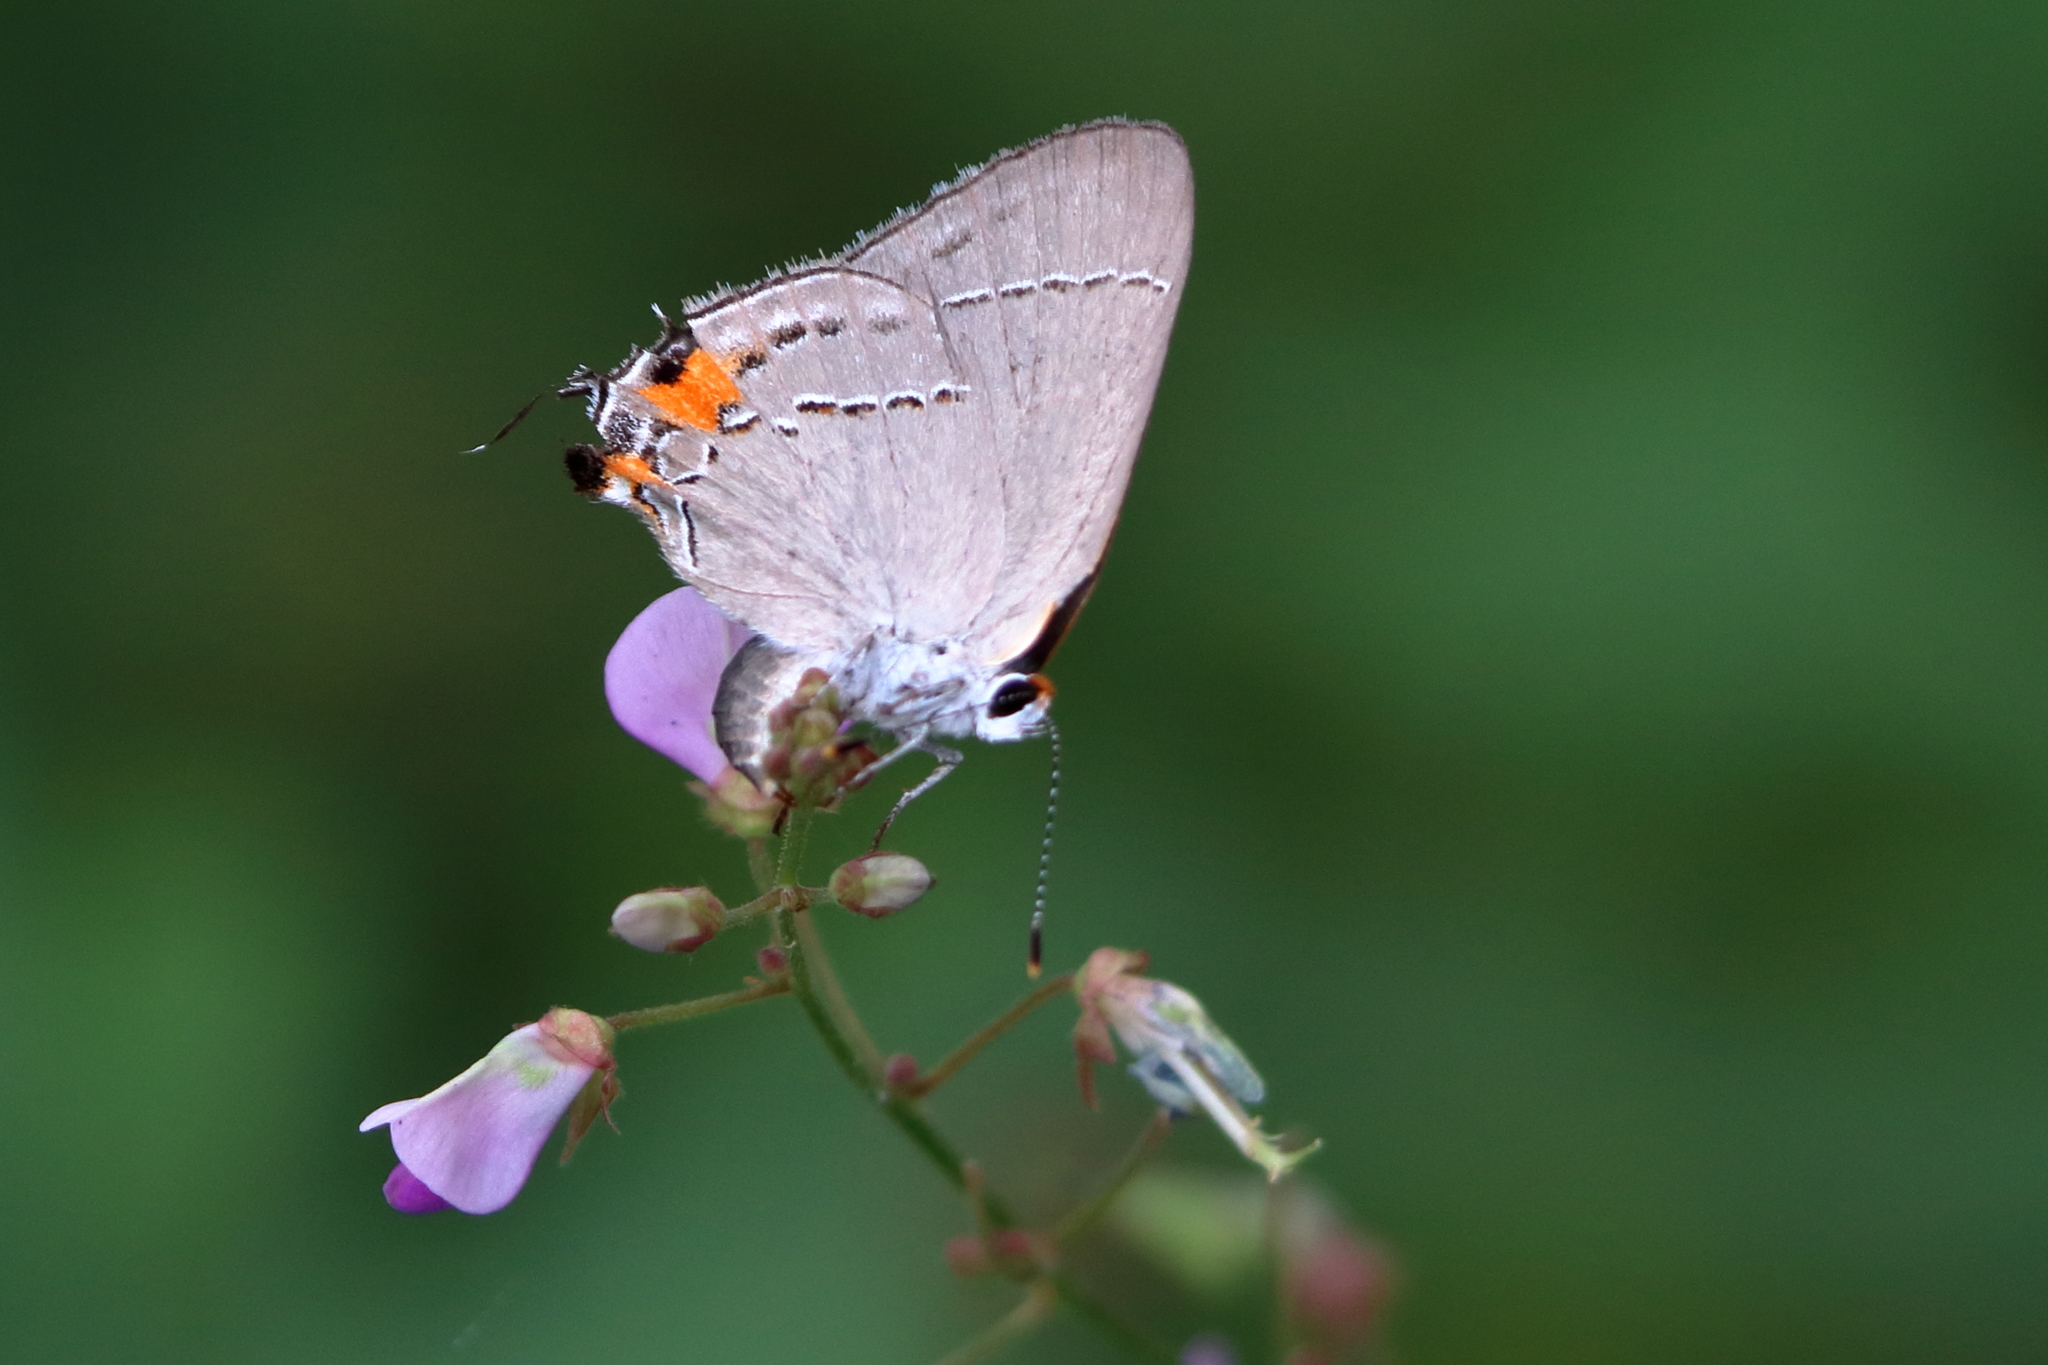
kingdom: Animalia
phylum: Arthropoda
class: Insecta
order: Lepidoptera
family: Lycaenidae
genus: Strymon
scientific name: Strymon melinus
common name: Gray hairstreak
